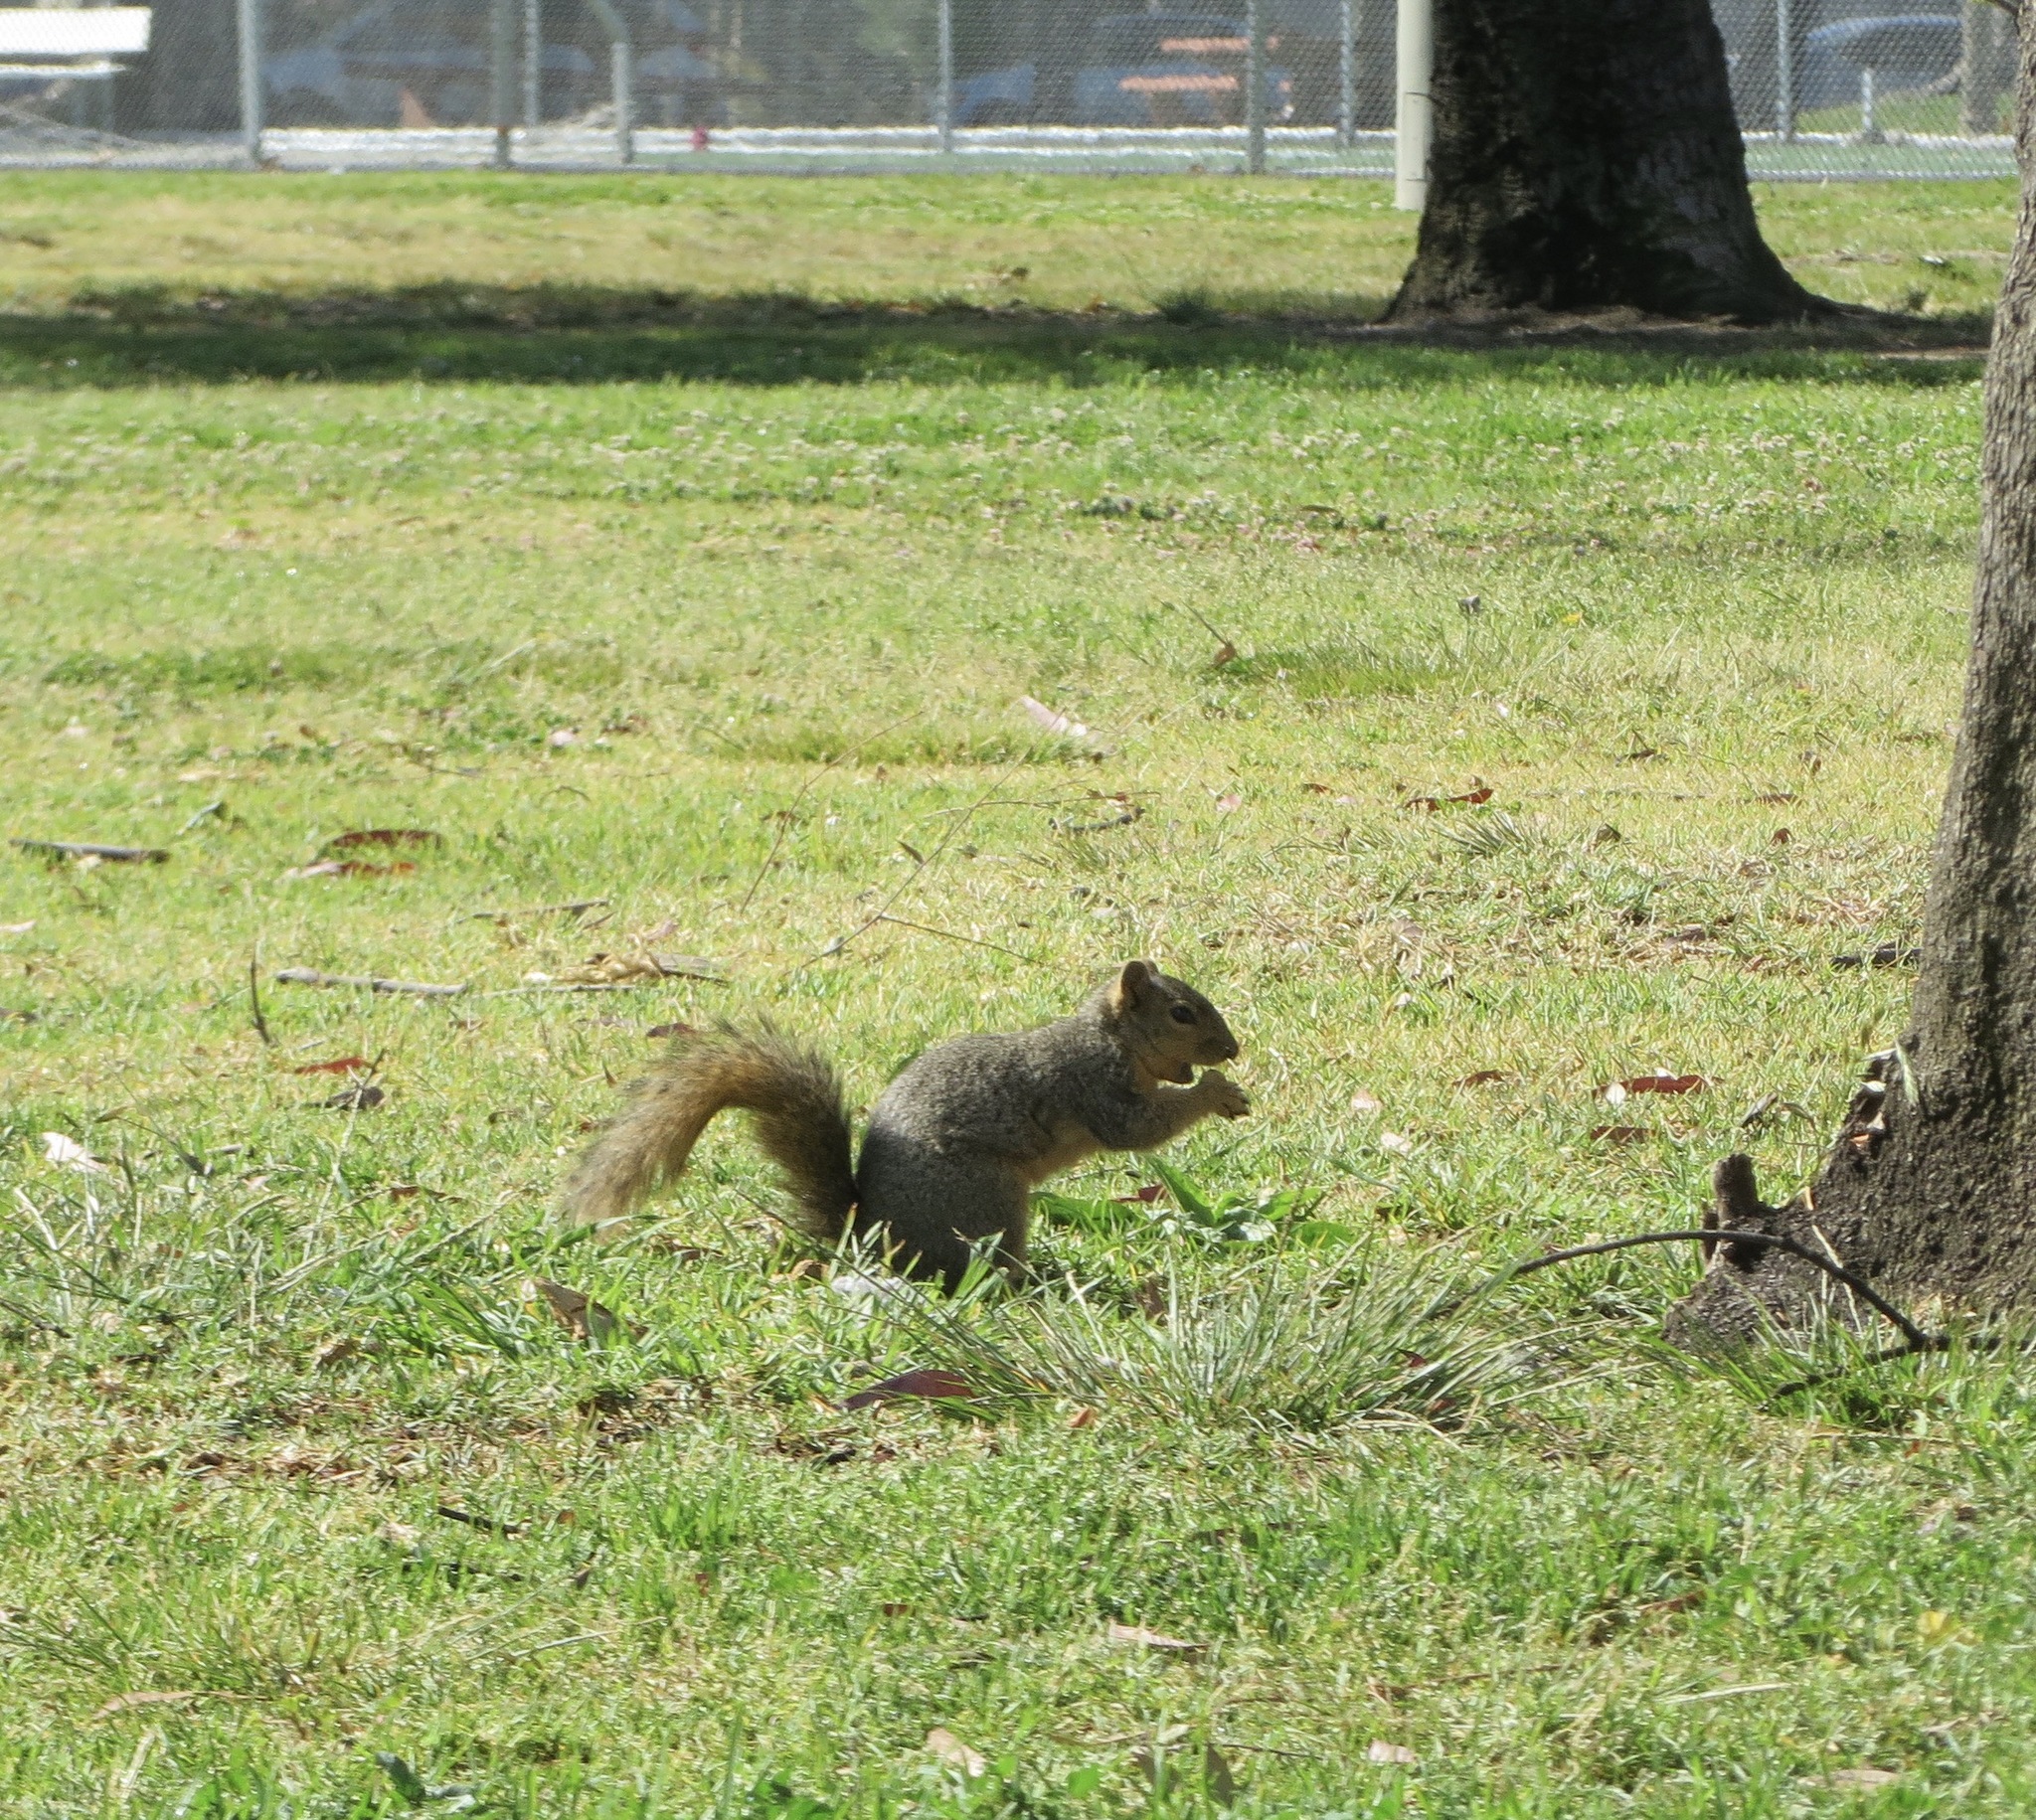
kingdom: Animalia
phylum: Chordata
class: Mammalia
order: Rodentia
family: Sciuridae
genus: Sciurus
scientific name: Sciurus niger
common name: Fox squirrel
